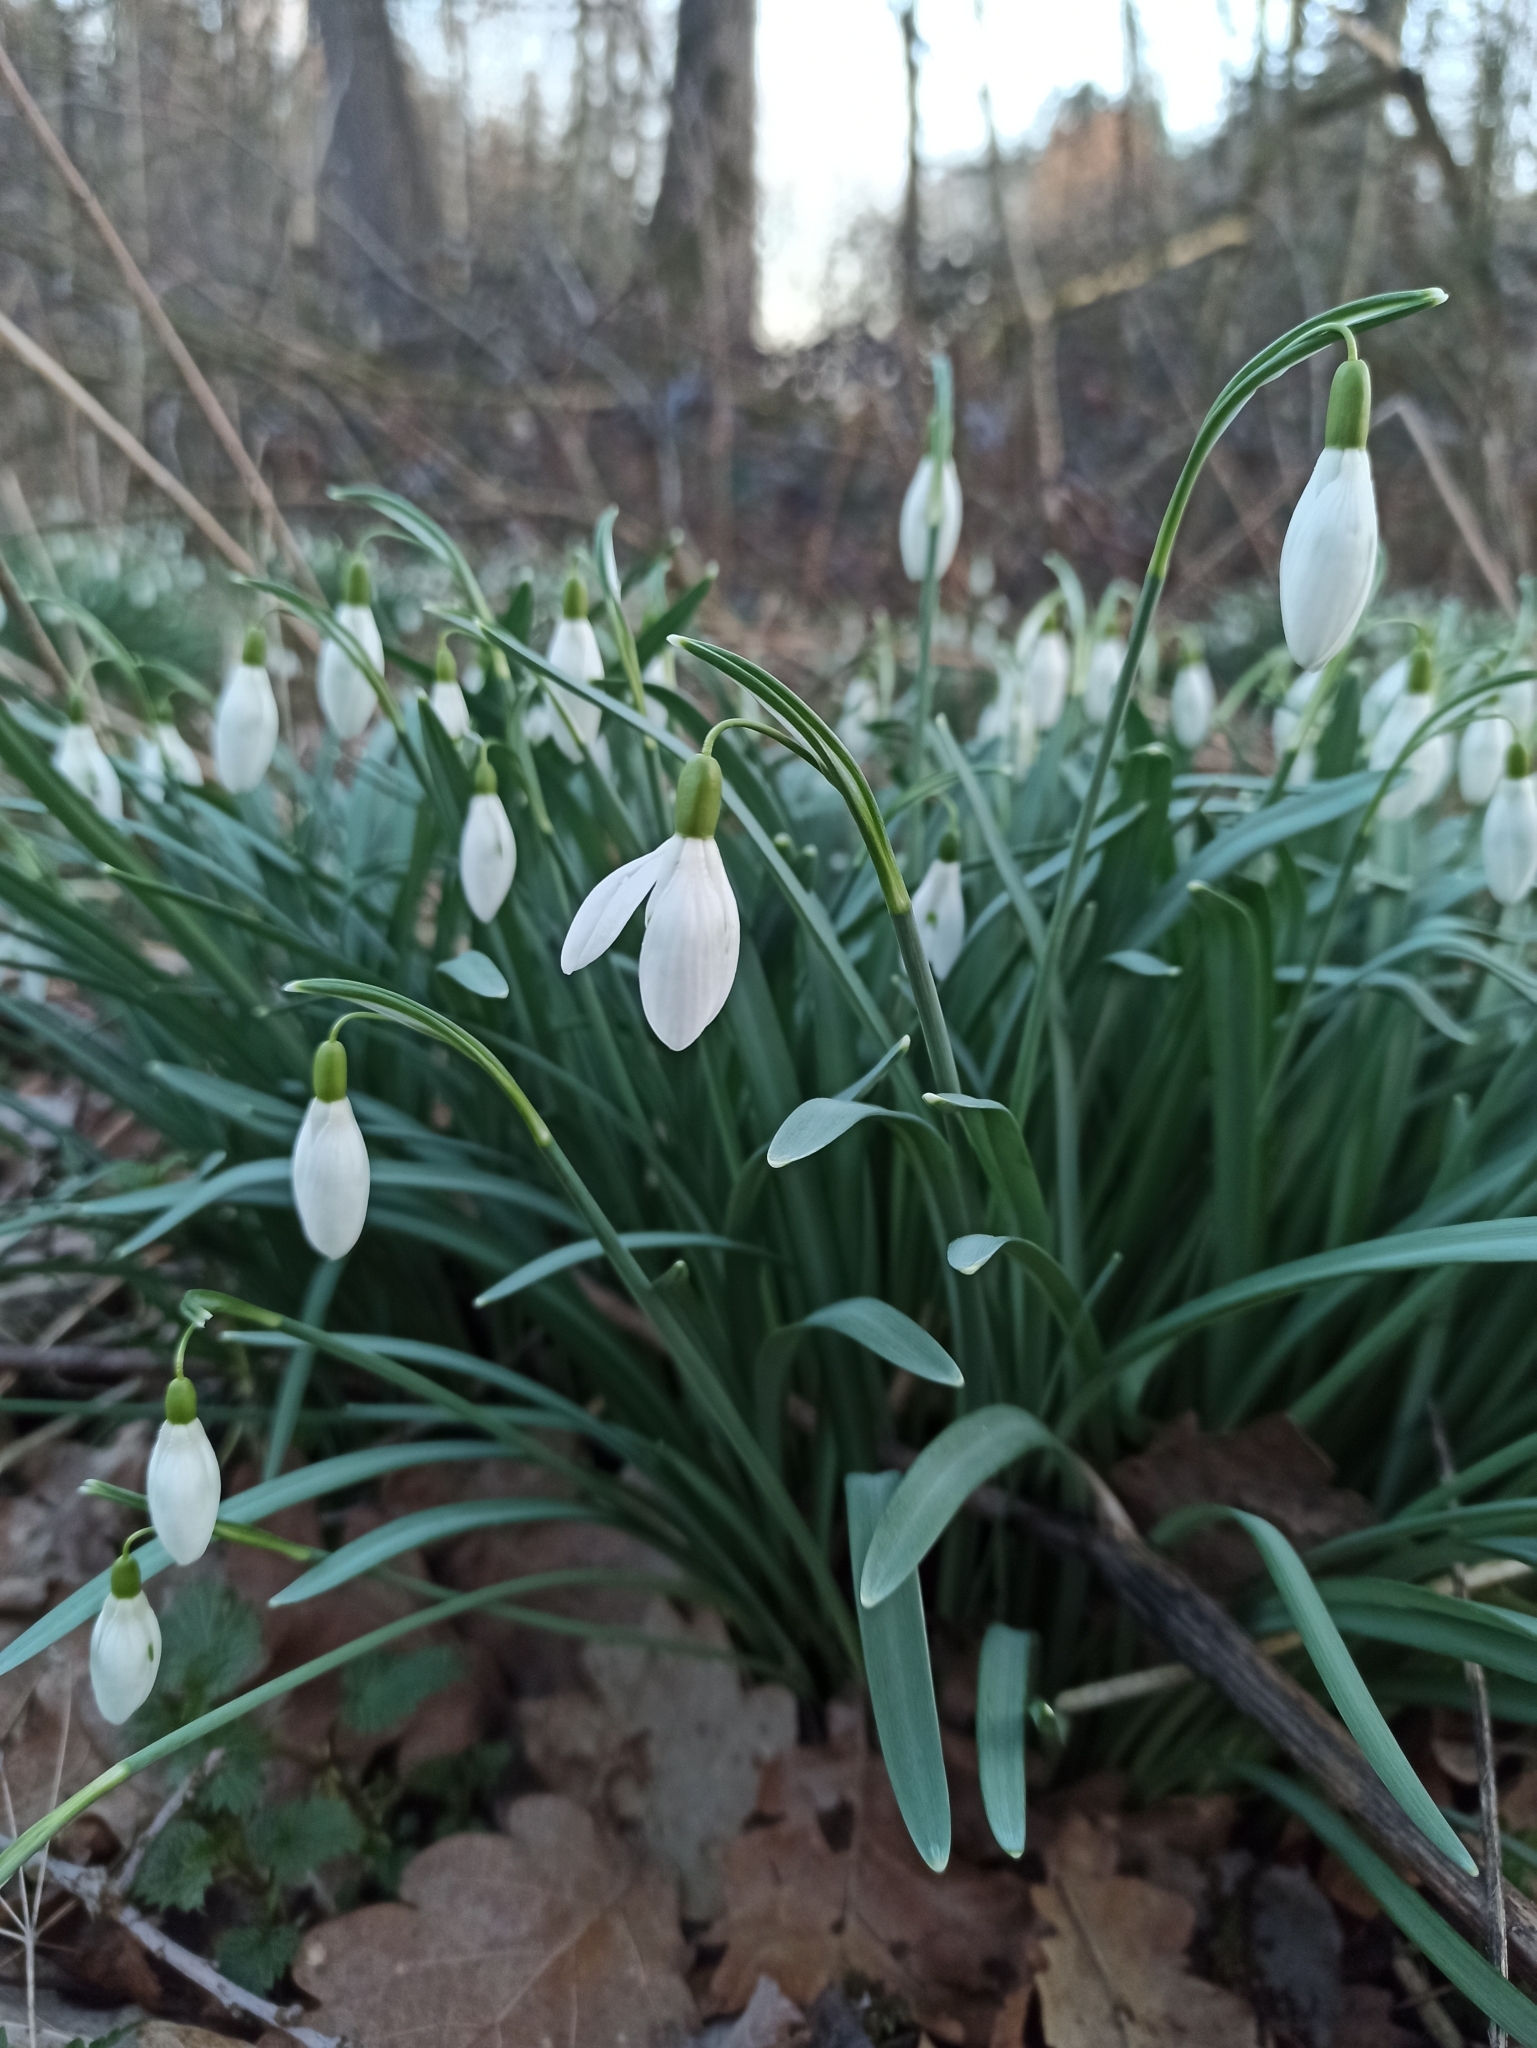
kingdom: Plantae
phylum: Tracheophyta
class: Liliopsida
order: Asparagales
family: Amaryllidaceae
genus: Galanthus
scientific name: Galanthus nivalis
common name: Snowdrop
